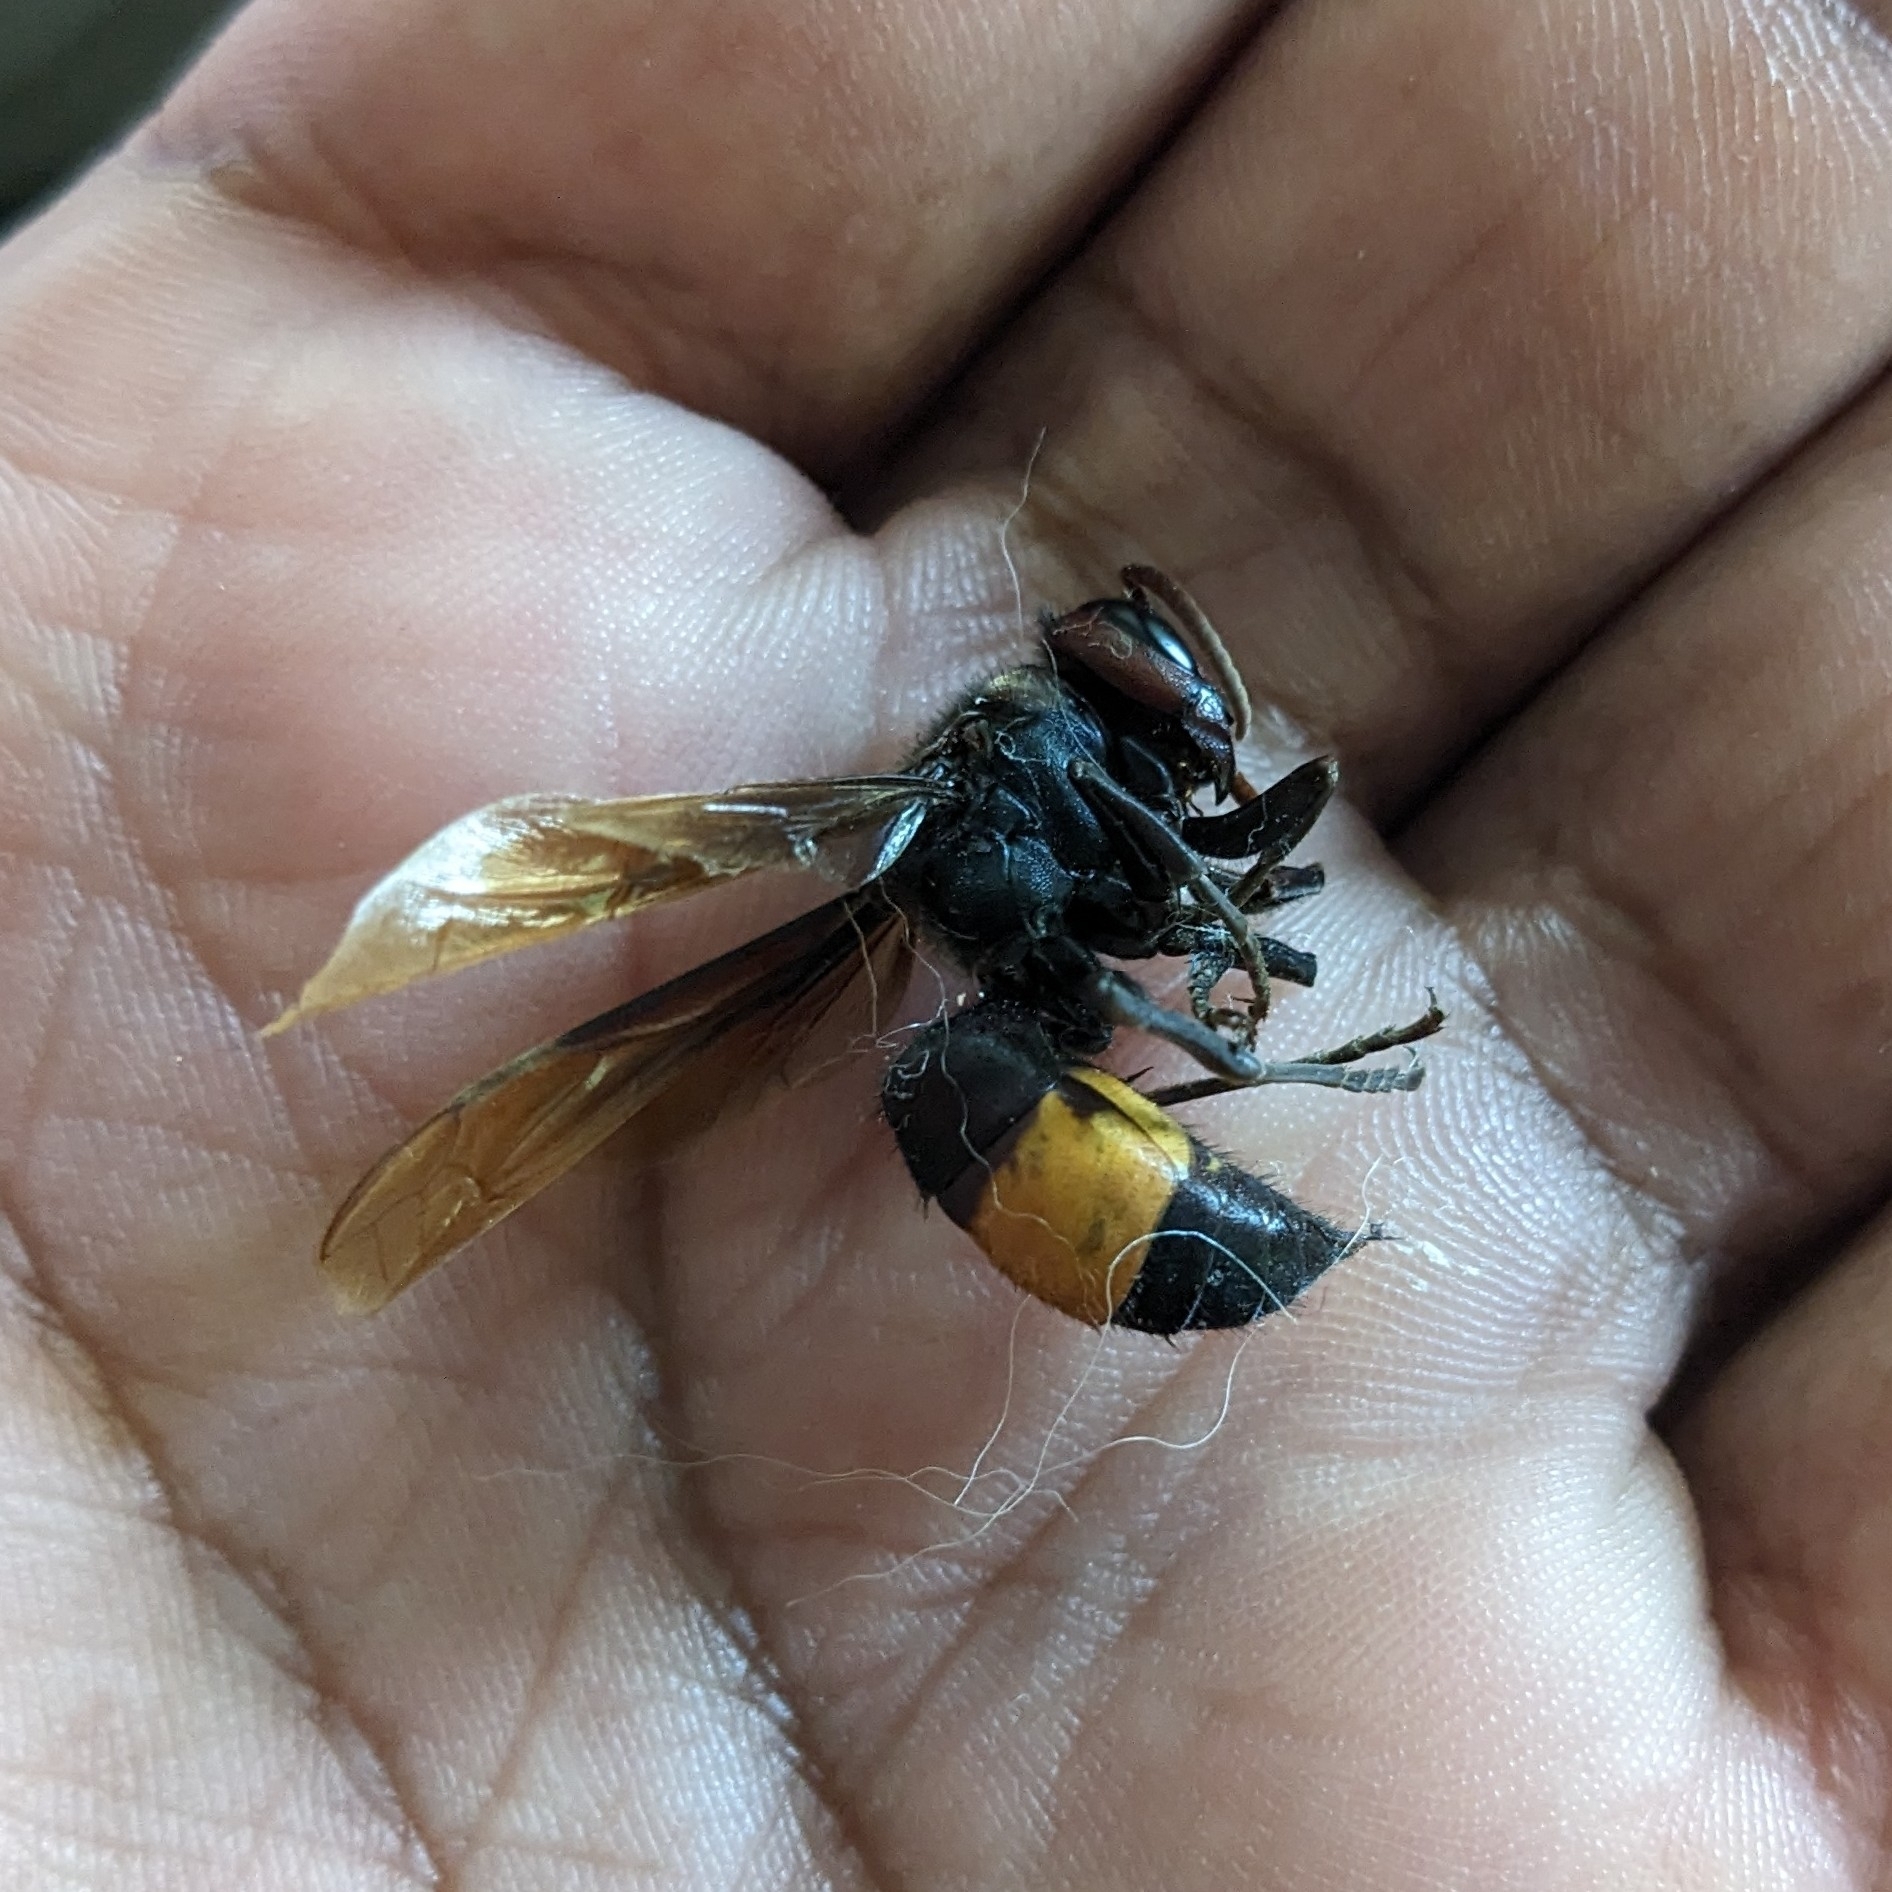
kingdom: Animalia
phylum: Arthropoda
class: Insecta
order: Hymenoptera
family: Vespidae
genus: Vespa
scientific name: Vespa tropica
